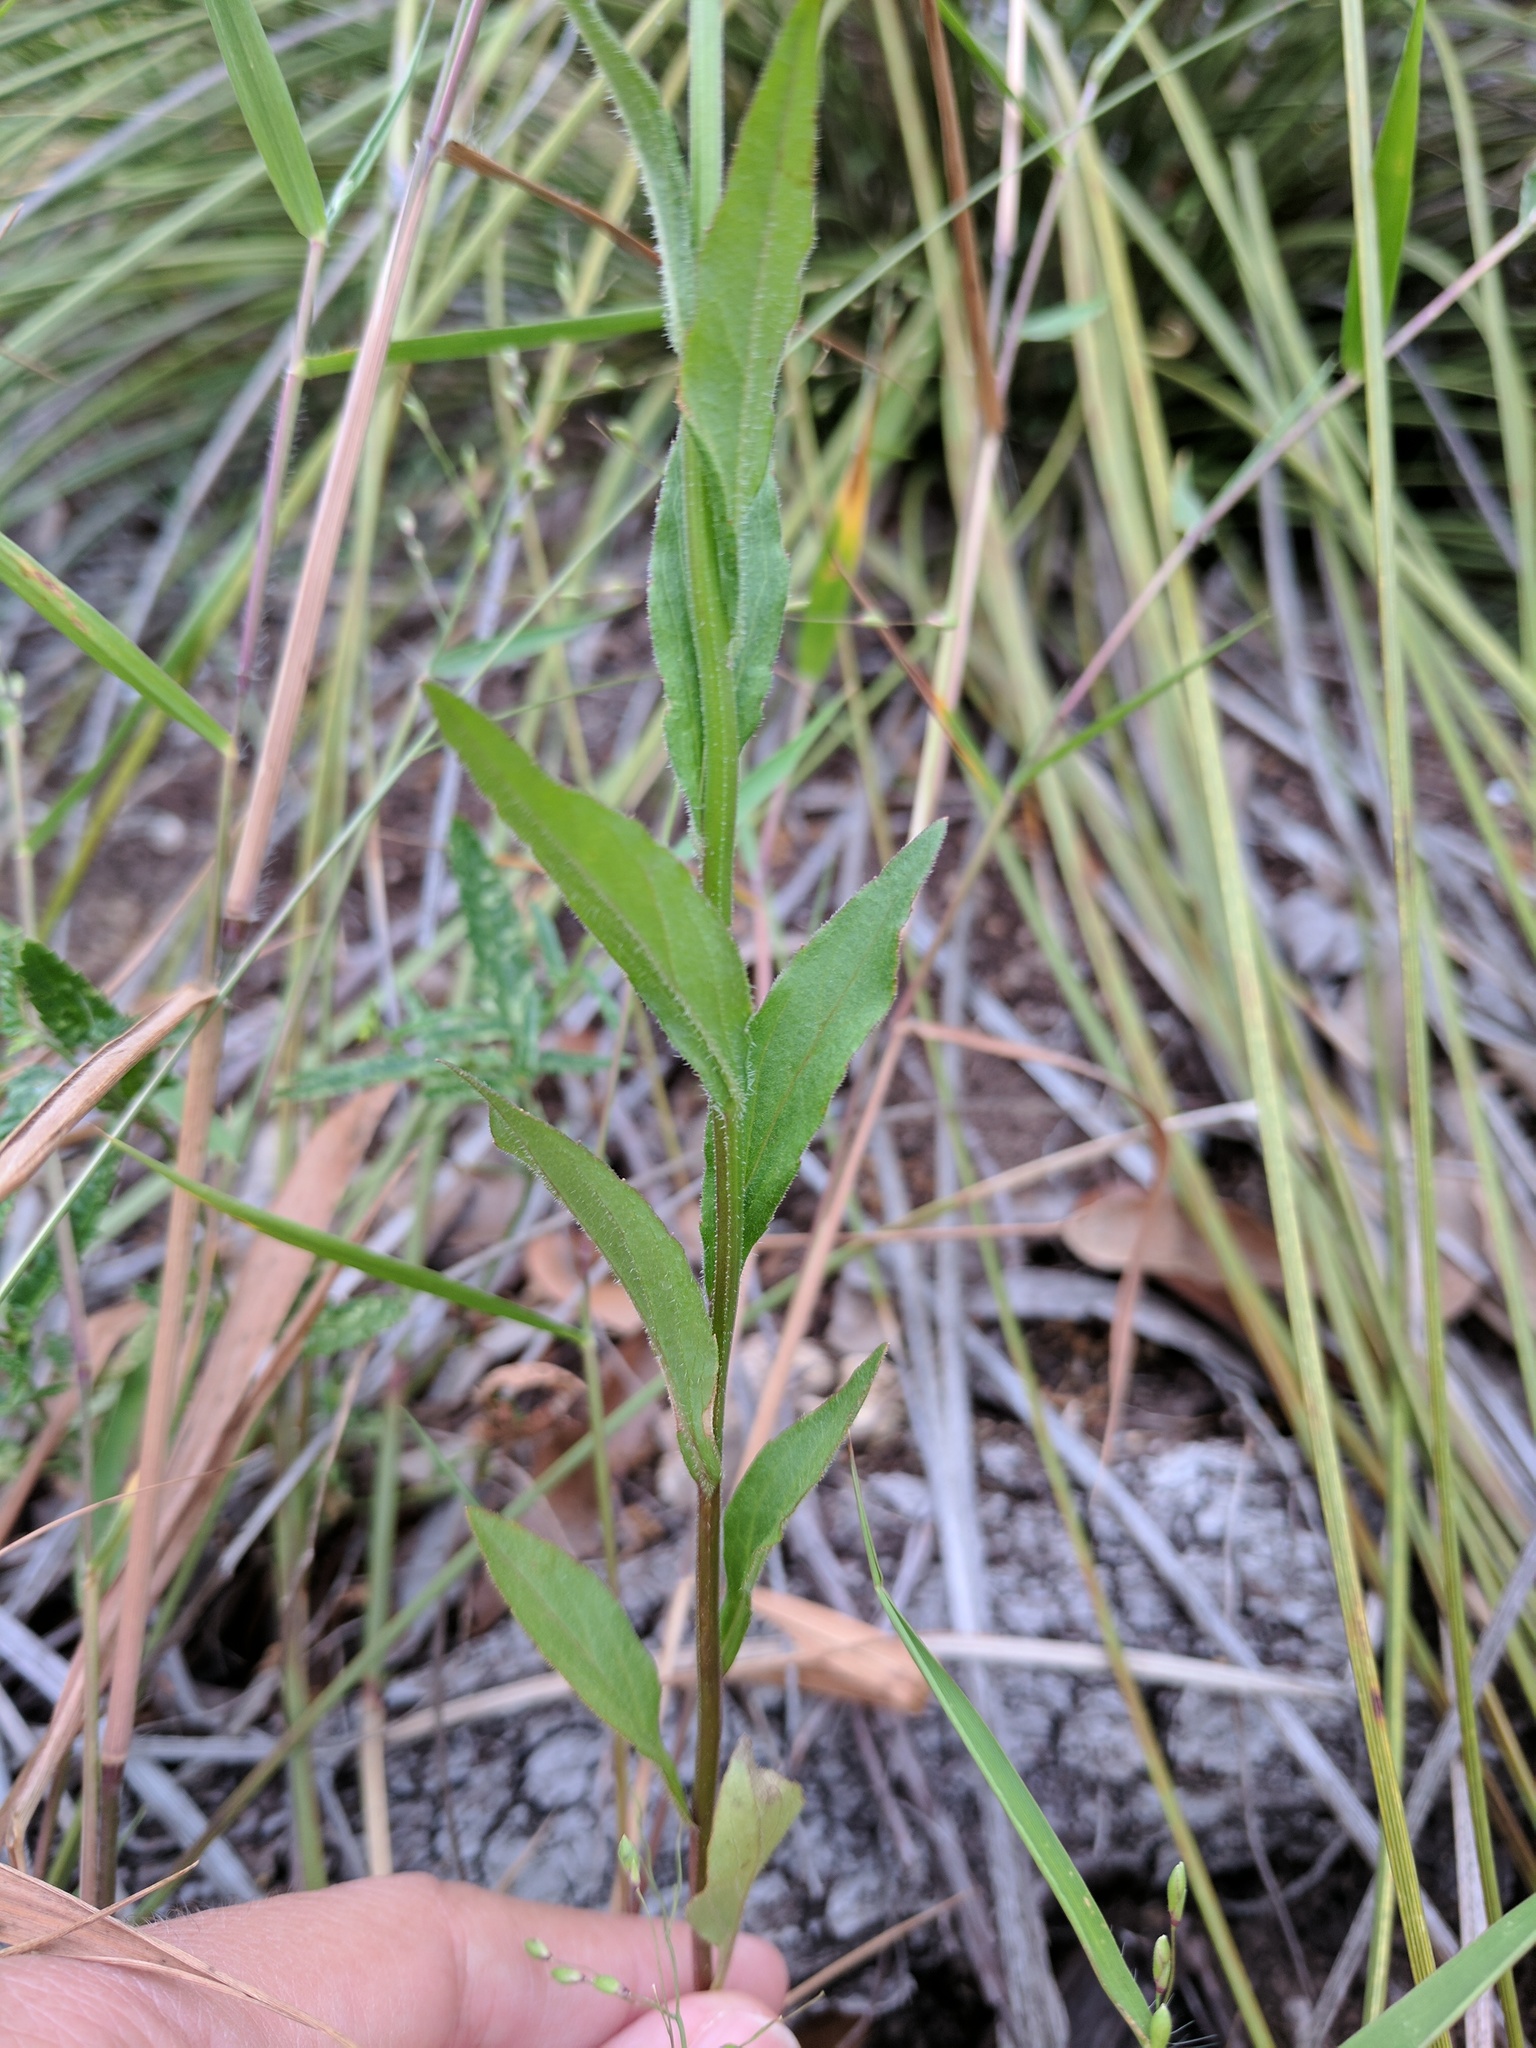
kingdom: Plantae
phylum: Tracheophyta
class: Magnoliopsida
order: Asterales
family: Campanulaceae
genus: Triodanis
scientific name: Triodanis coloradoensis
